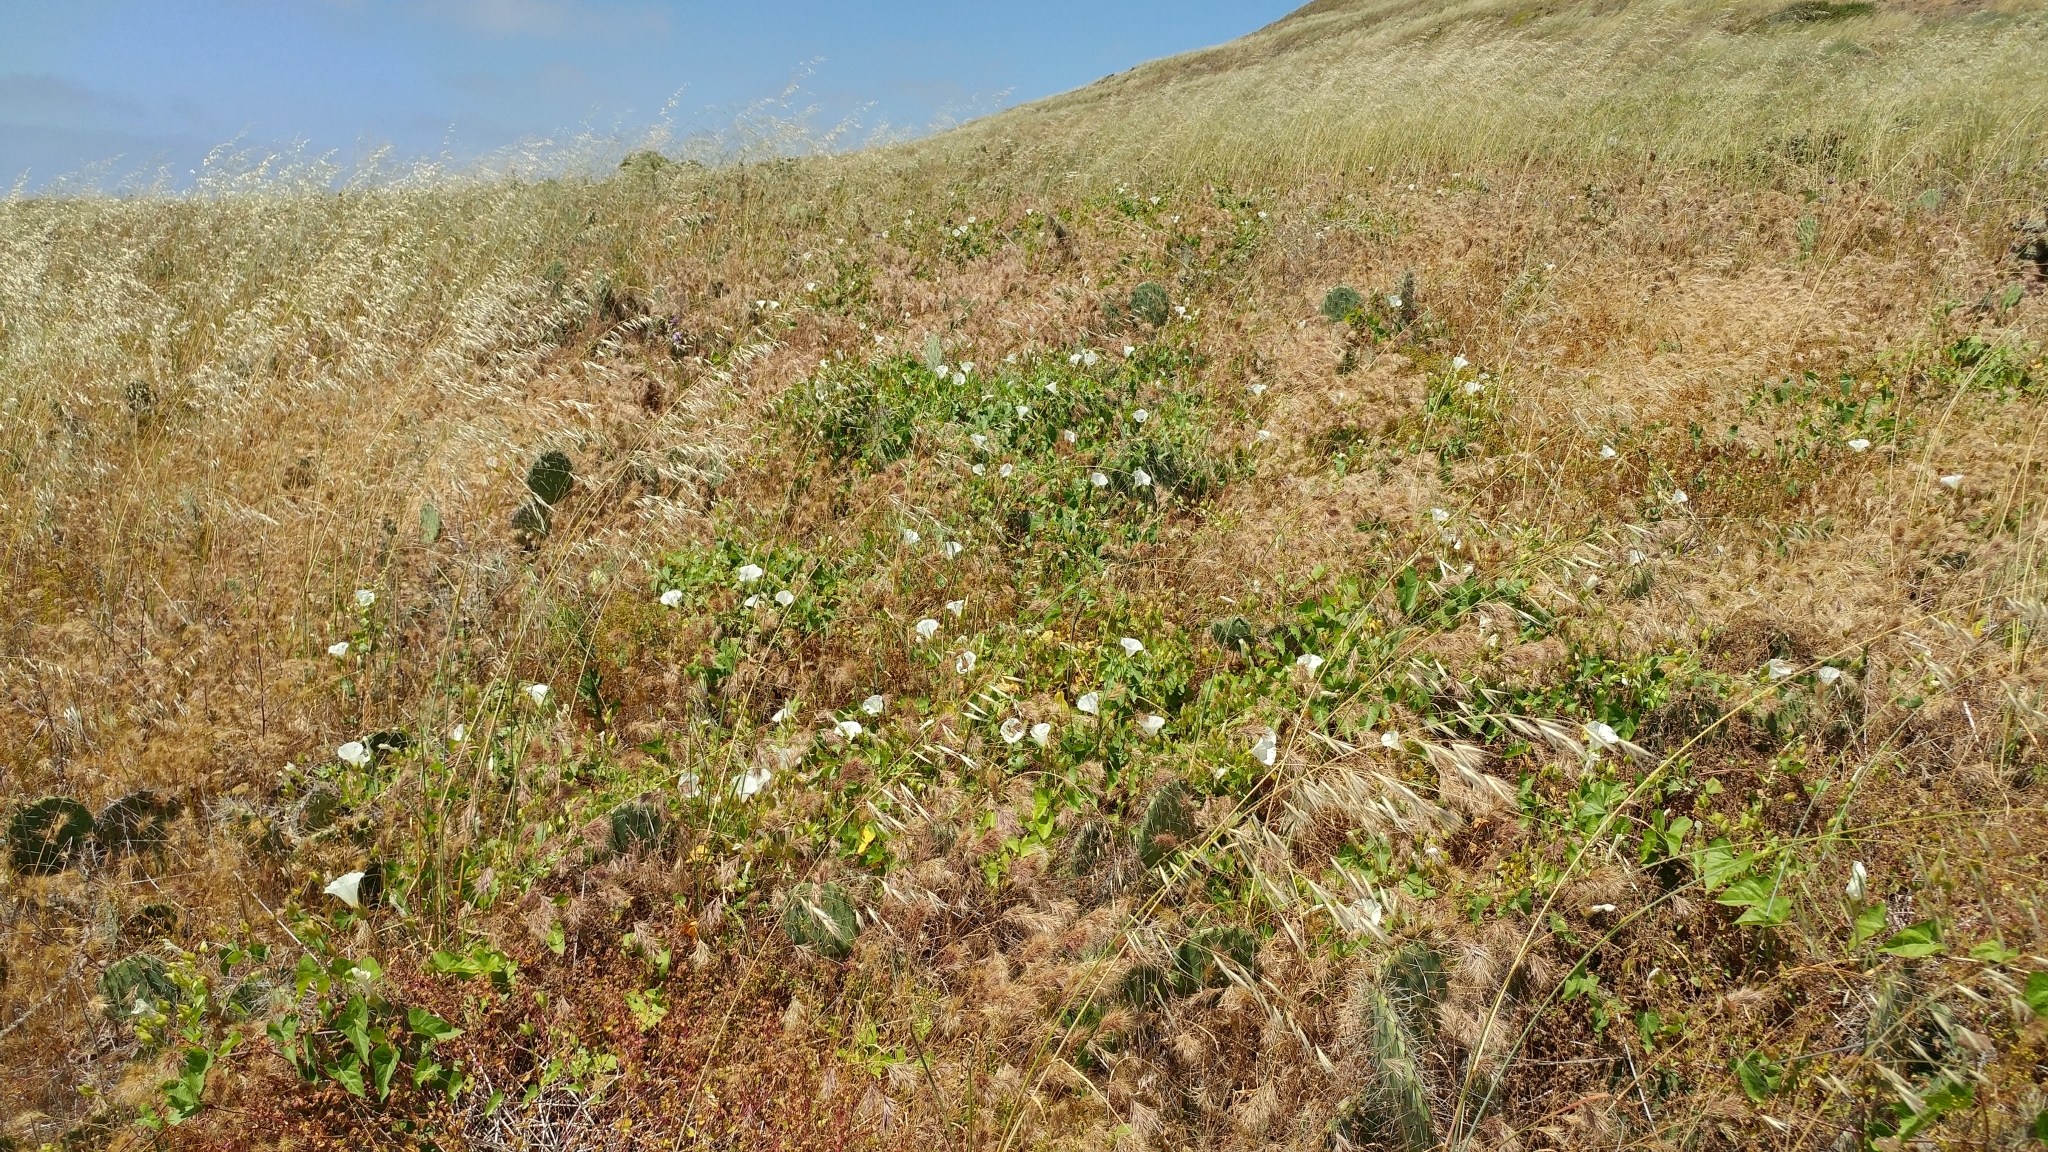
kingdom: Plantae
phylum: Tracheophyta
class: Magnoliopsida
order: Solanales
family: Convolvulaceae
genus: Calystegia
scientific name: Calystegia macrostegia
